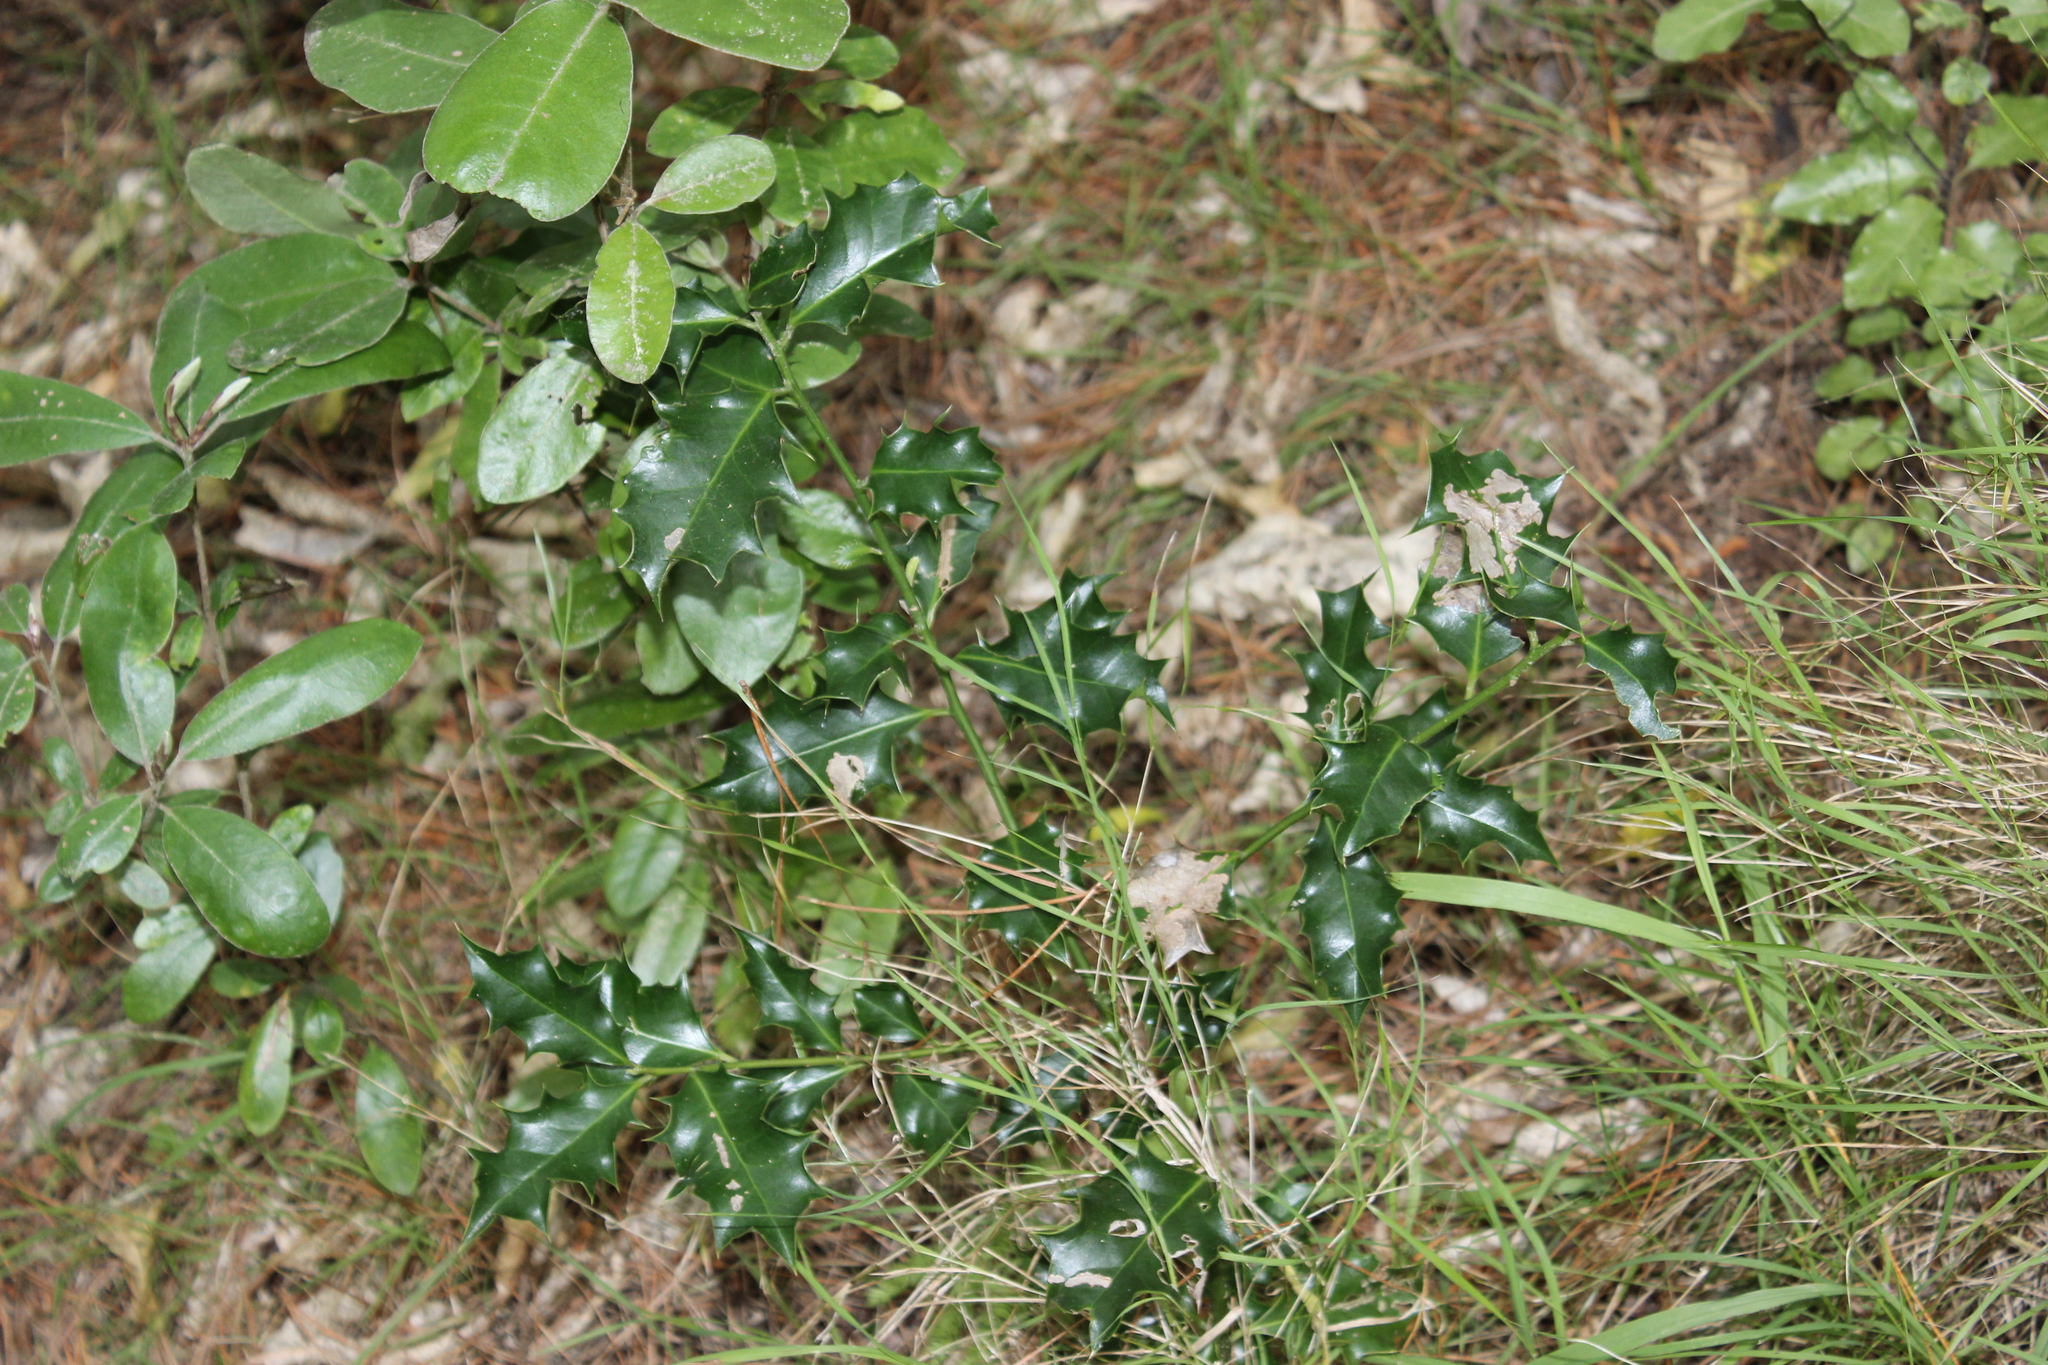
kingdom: Plantae
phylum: Tracheophyta
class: Magnoliopsida
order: Aquifoliales
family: Aquifoliaceae
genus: Ilex
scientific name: Ilex aquifolium
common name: English holly
